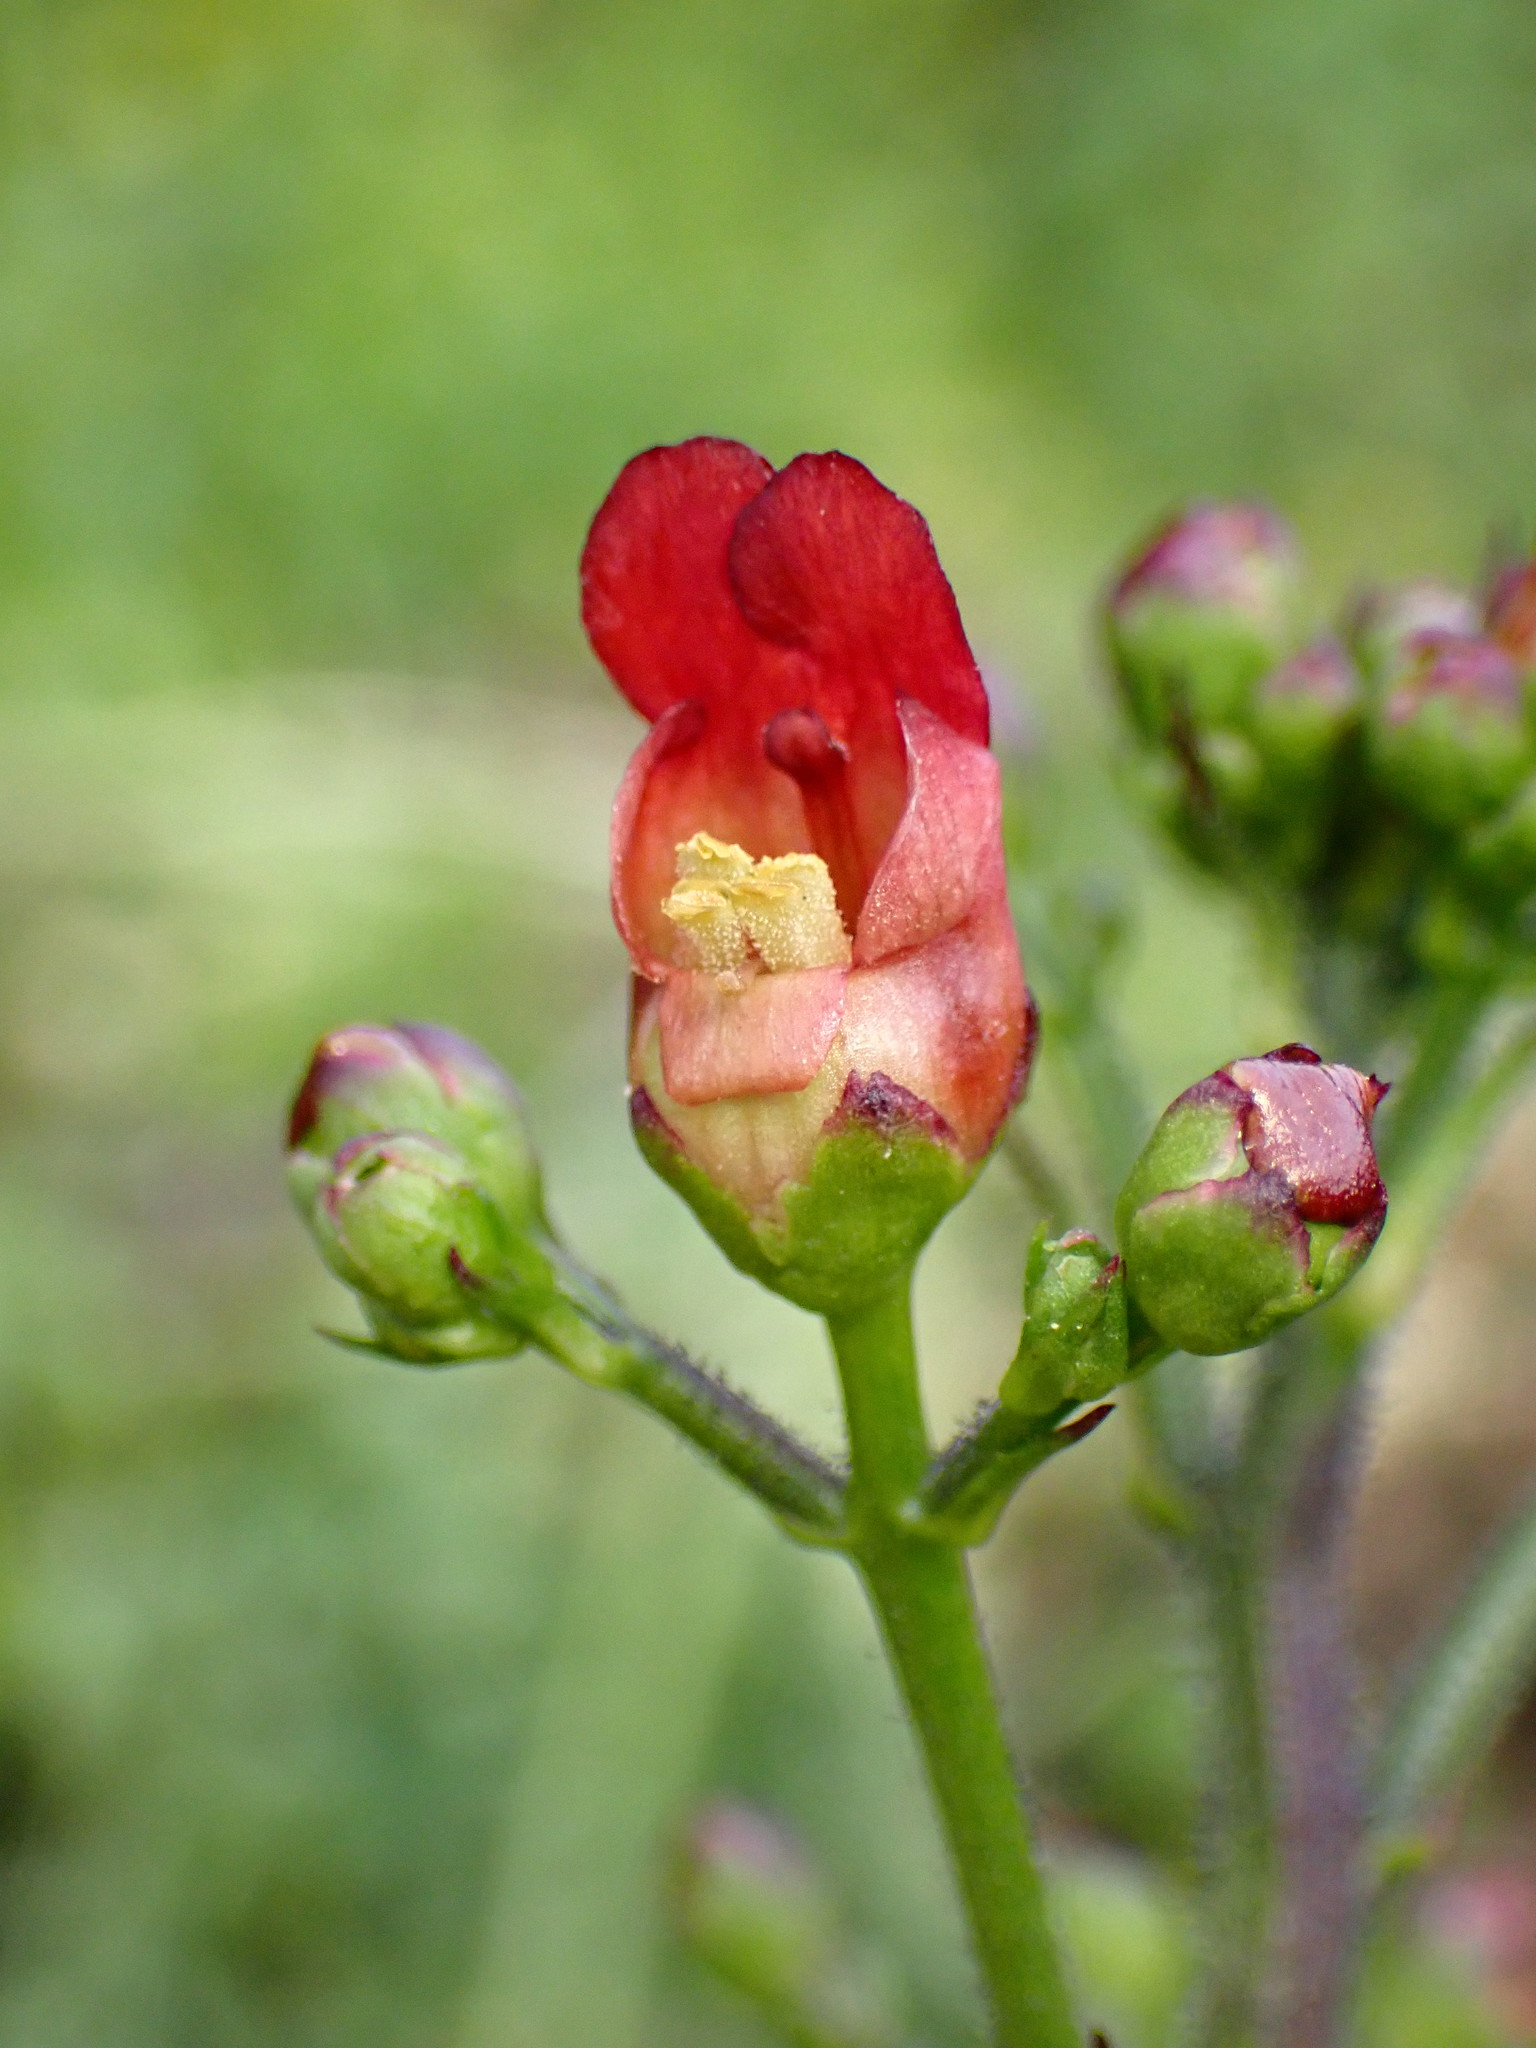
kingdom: Plantae
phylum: Tracheophyta
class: Magnoliopsida
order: Lamiales
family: Scrophulariaceae
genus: Scrophularia
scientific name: Scrophularia californica
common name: California figwort
